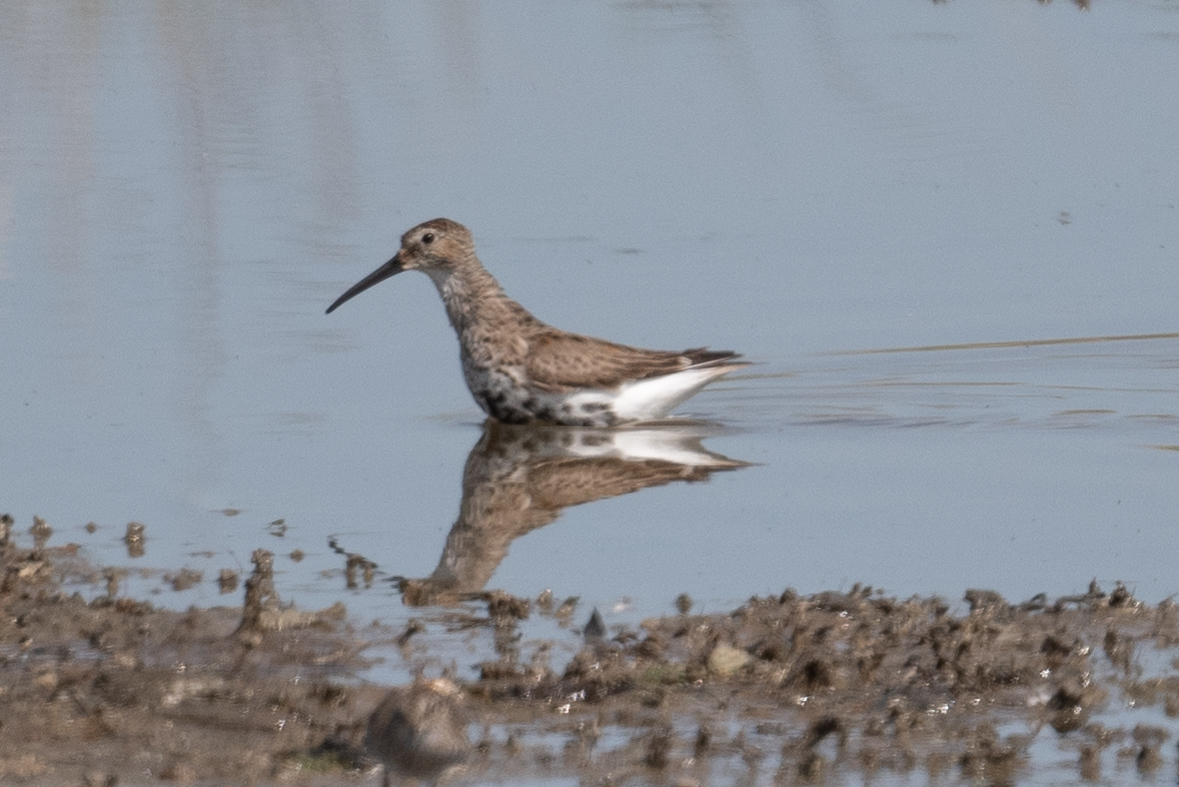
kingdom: Animalia
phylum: Chordata
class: Aves
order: Charadriiformes
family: Scolopacidae
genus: Calidris
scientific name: Calidris alpina
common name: Dunlin
